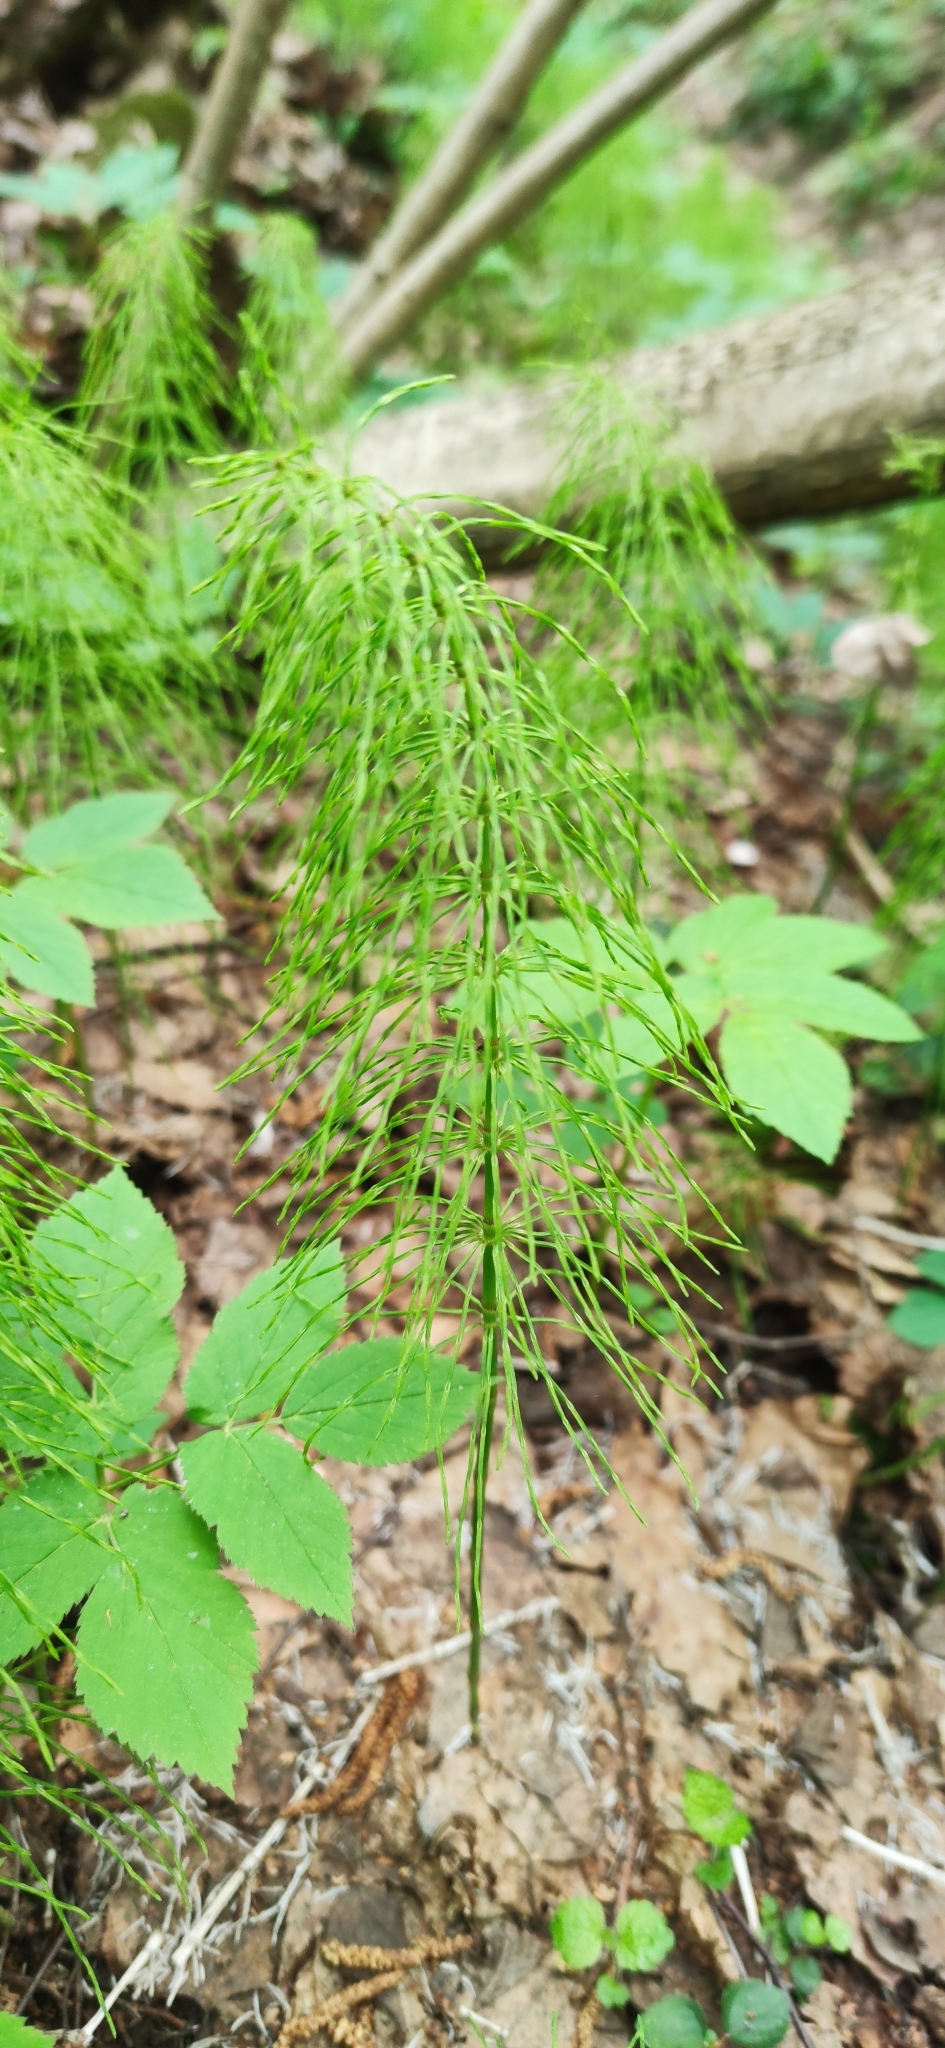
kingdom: Plantae
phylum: Tracheophyta
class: Polypodiopsida
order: Equisetales
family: Equisetaceae
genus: Equisetum
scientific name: Equisetum pratense
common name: Meadow horsetail
